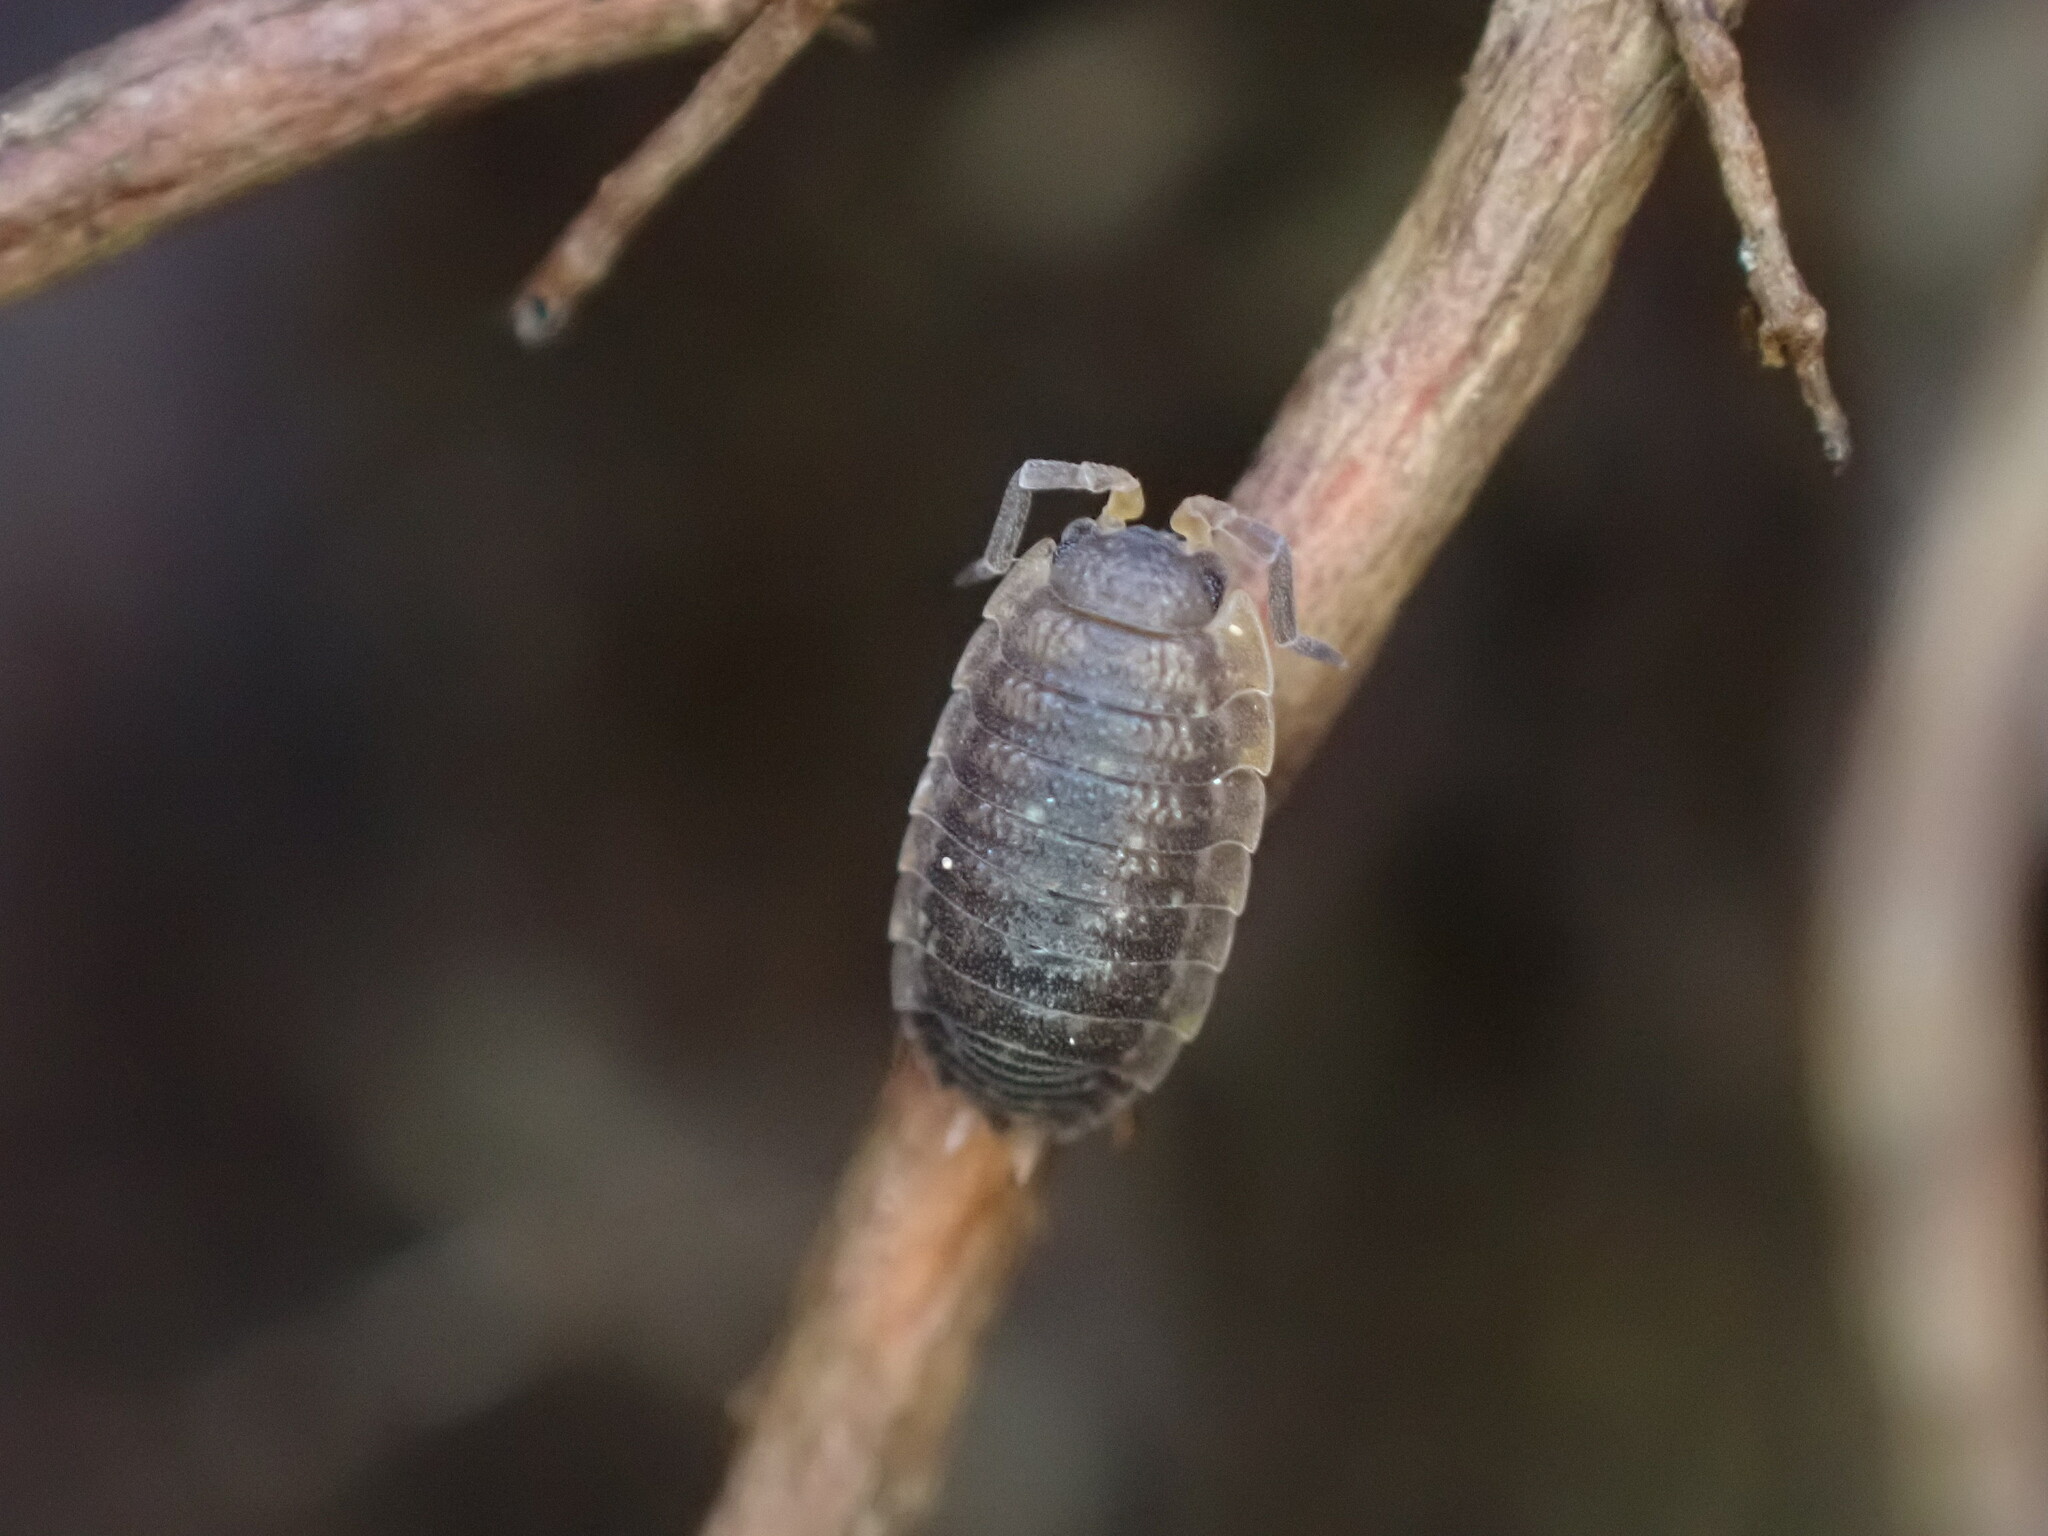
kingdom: Animalia
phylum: Arthropoda
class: Malacostraca
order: Isopoda
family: Porcellionidae
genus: Porcellio
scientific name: Porcellio scaber
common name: Common rough woodlouse
